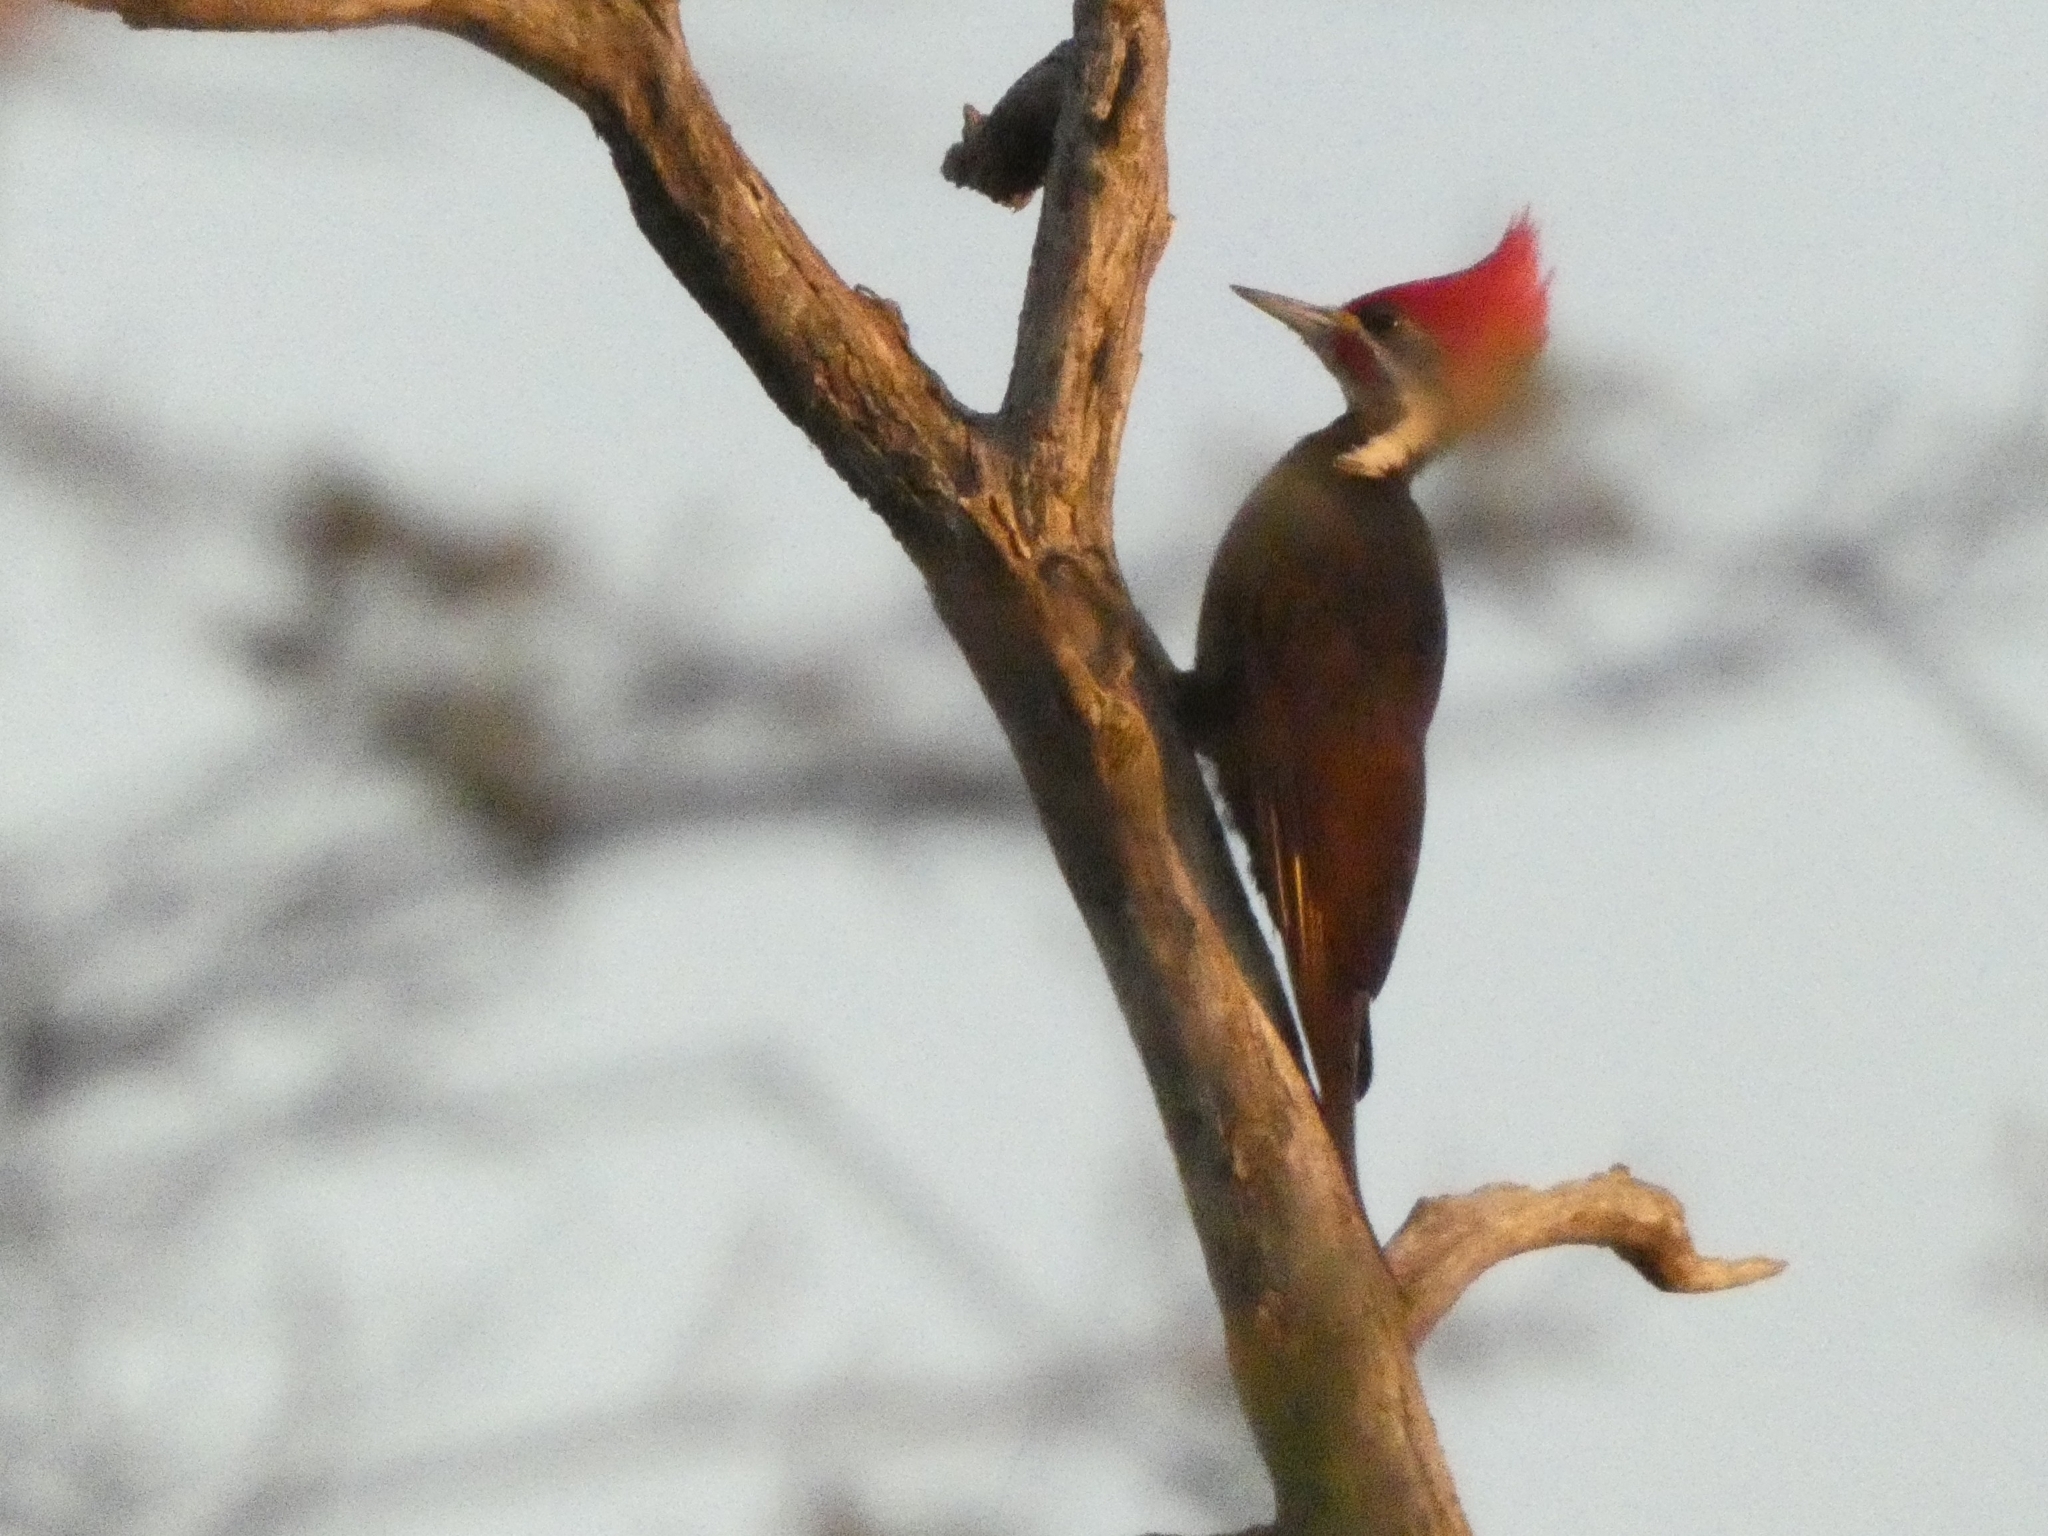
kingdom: Animalia
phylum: Chordata
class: Aves
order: Piciformes
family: Picidae
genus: Dryocopus
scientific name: Dryocopus schulzii
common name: Black-bodied woodpecker
